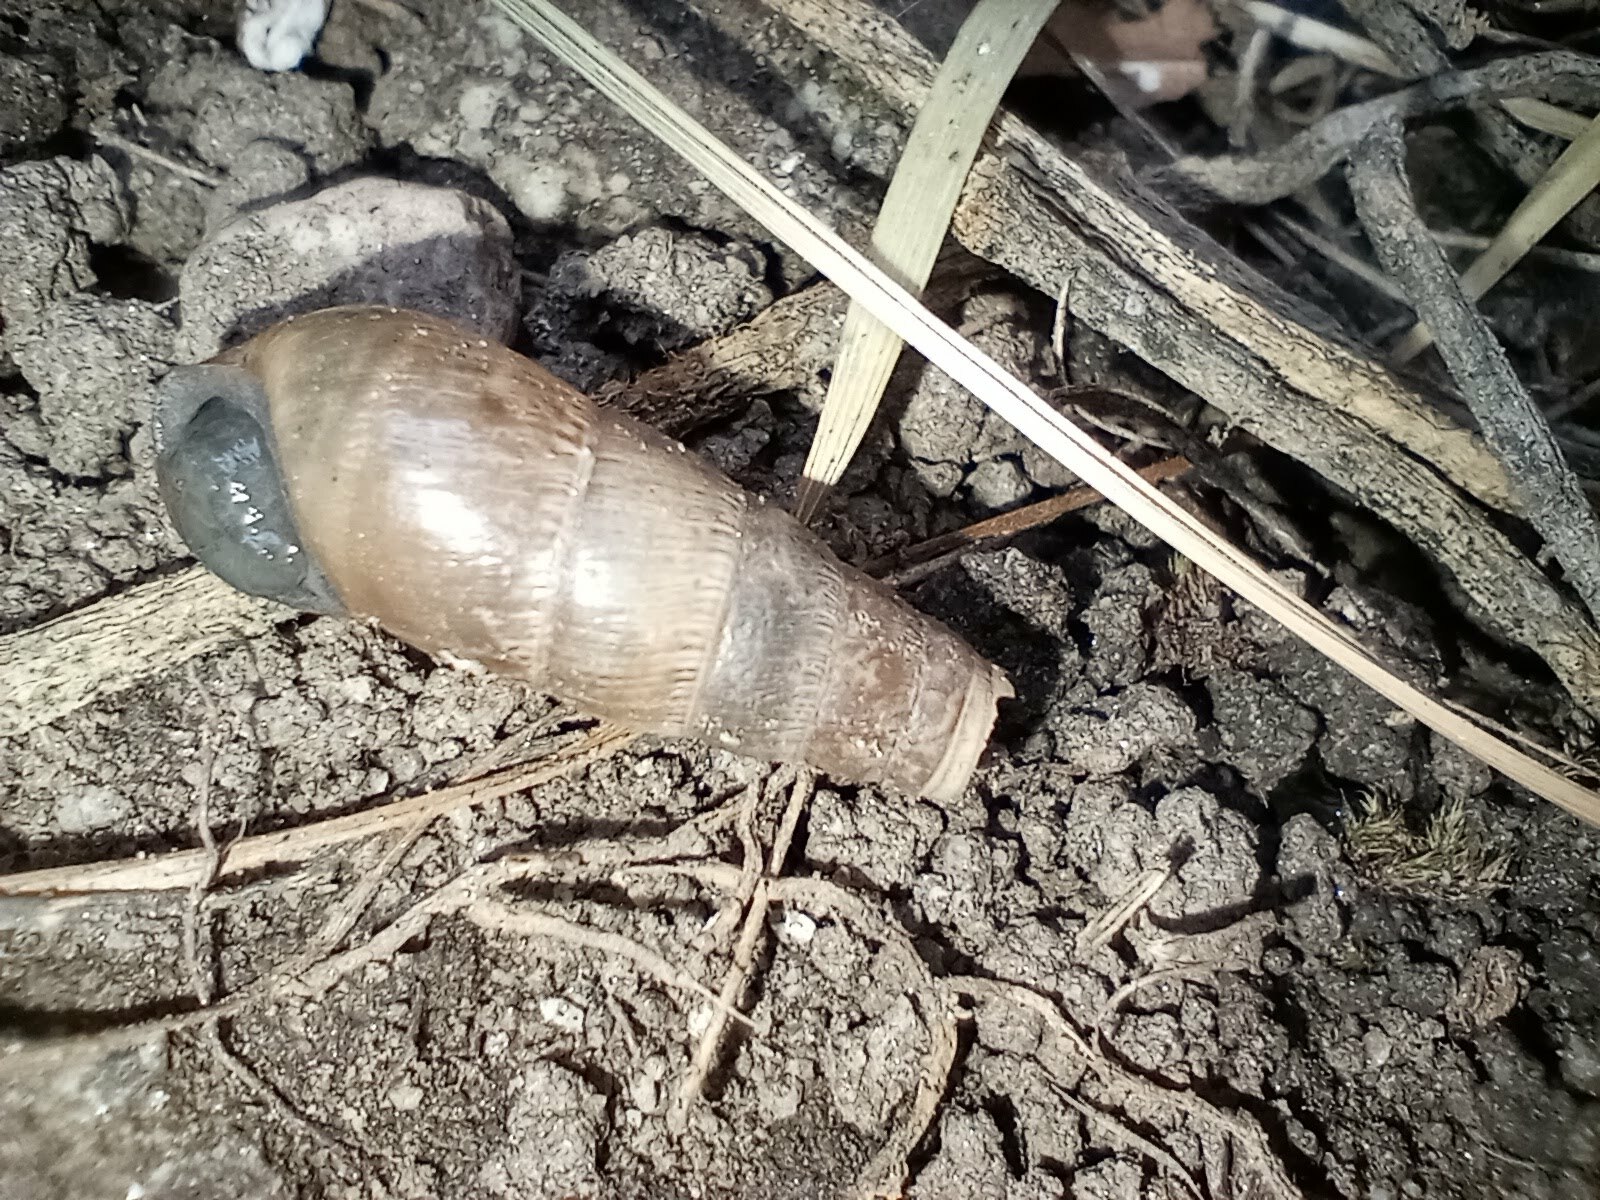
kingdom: Animalia
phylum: Mollusca
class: Gastropoda
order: Stylommatophora
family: Achatinidae
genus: Rumina
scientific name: Rumina decollata
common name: Decollate snail
